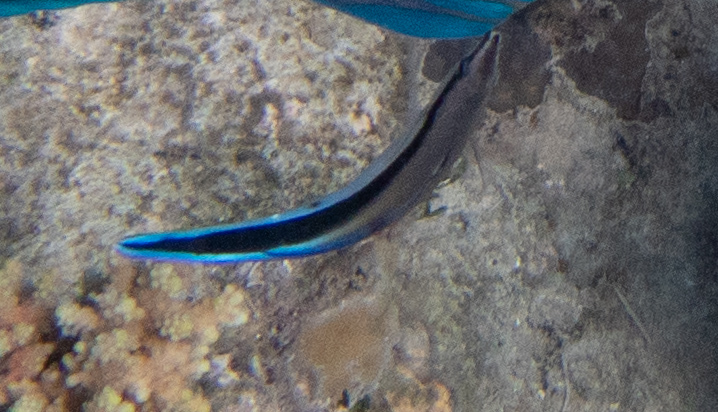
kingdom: Animalia
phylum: Chordata
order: Perciformes
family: Labridae
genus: Labroides
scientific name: Labroides dimidiatus
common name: Blue diesel wrasse
